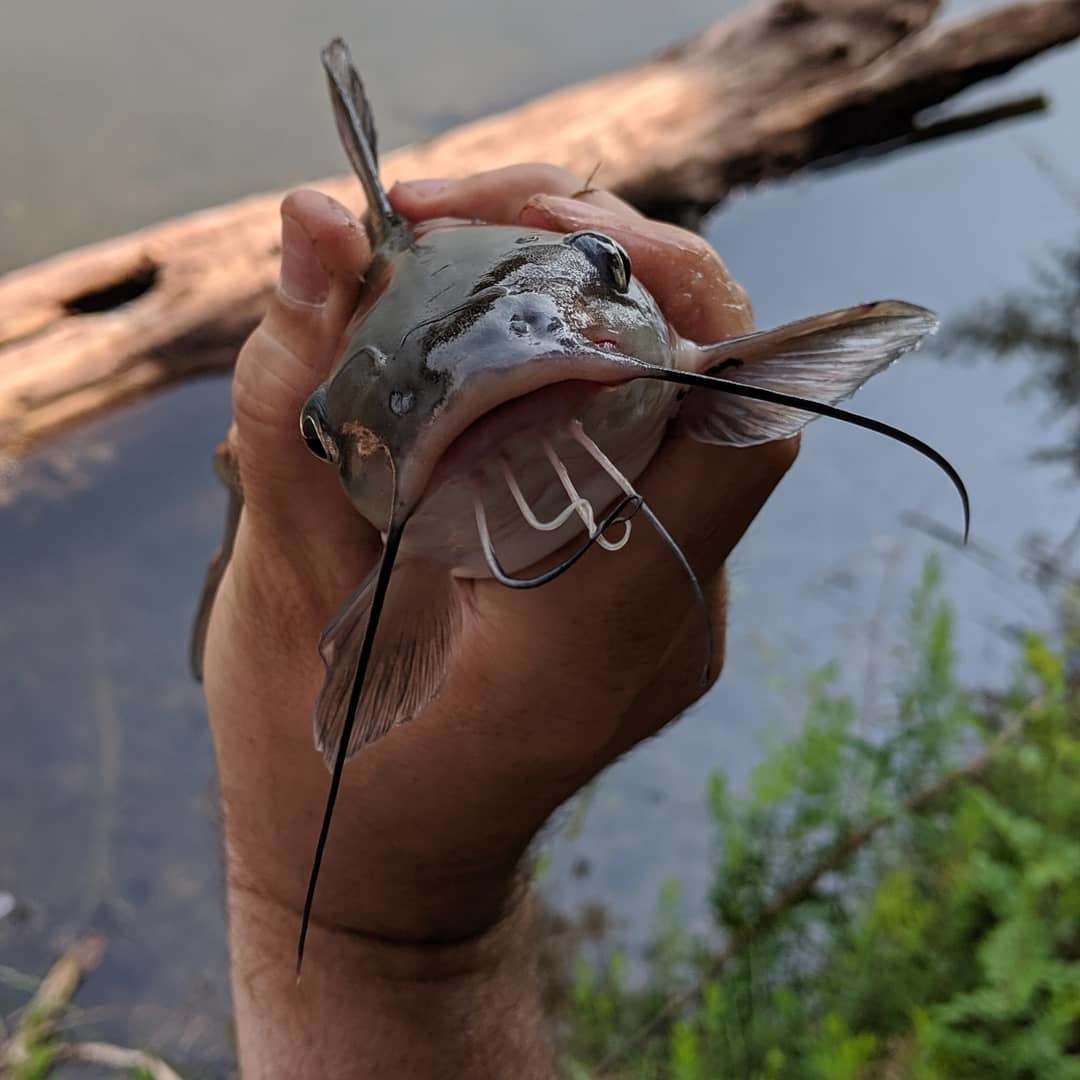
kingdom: Animalia
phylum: Chordata
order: Siluriformes
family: Ictaluridae
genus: Ictalurus
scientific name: Ictalurus punctatus
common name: Channel catfish
